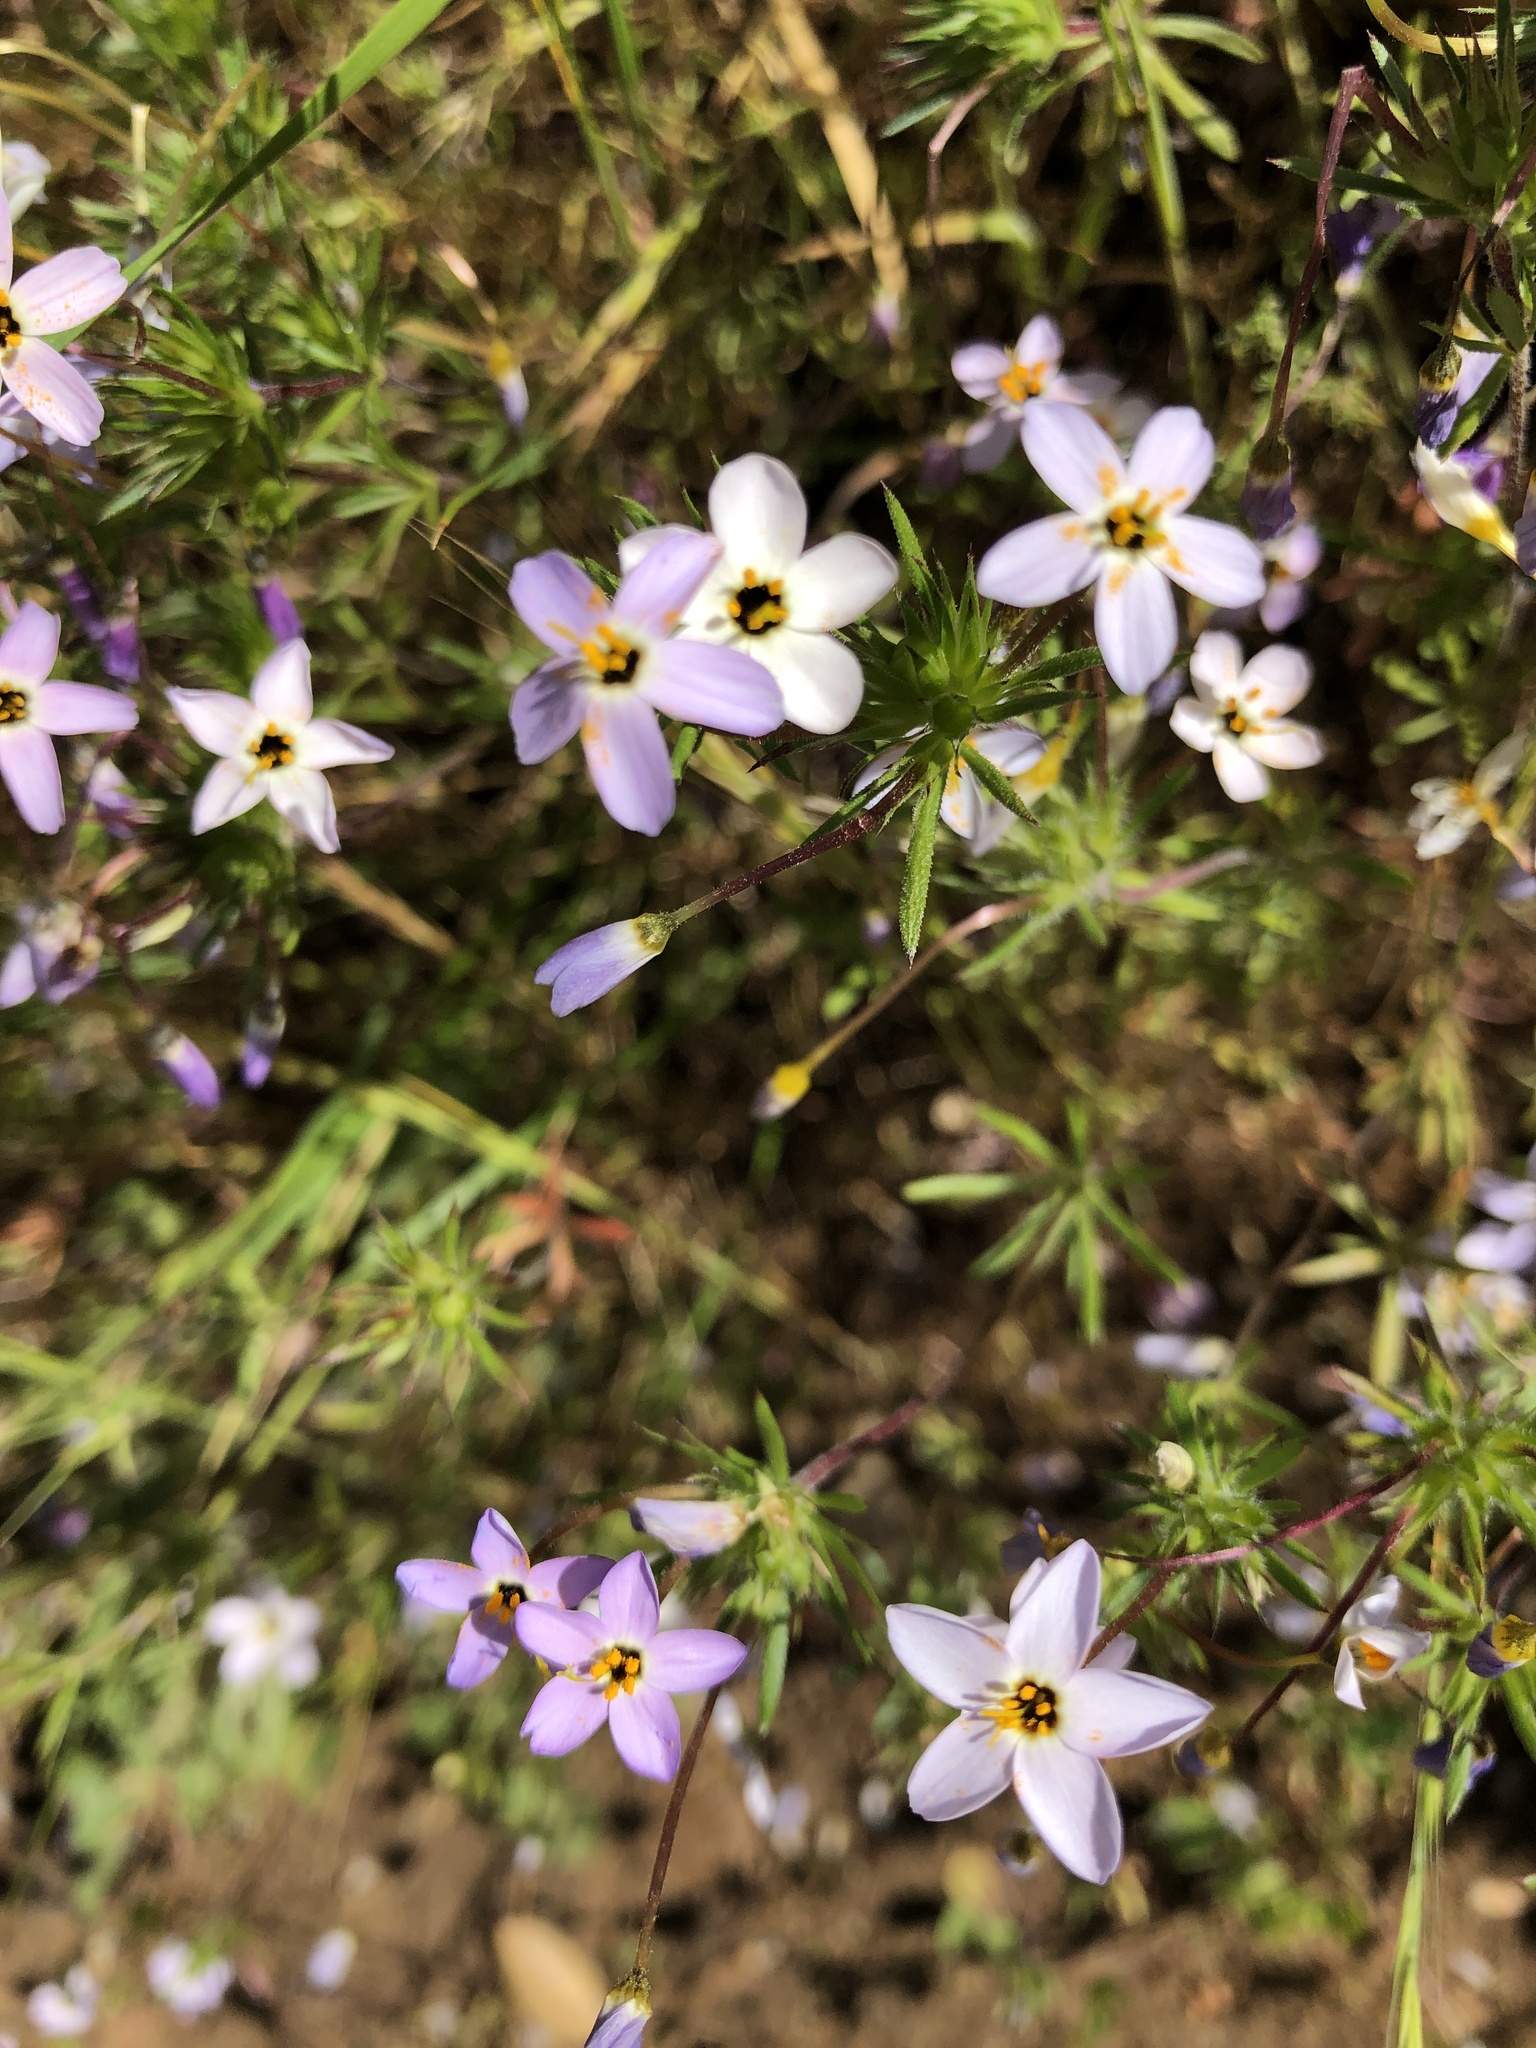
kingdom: Plantae
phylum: Tracheophyta
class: Magnoliopsida
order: Ericales
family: Polemoniaceae
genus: Leptosiphon
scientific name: Leptosiphon androsaceus
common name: False babystars
